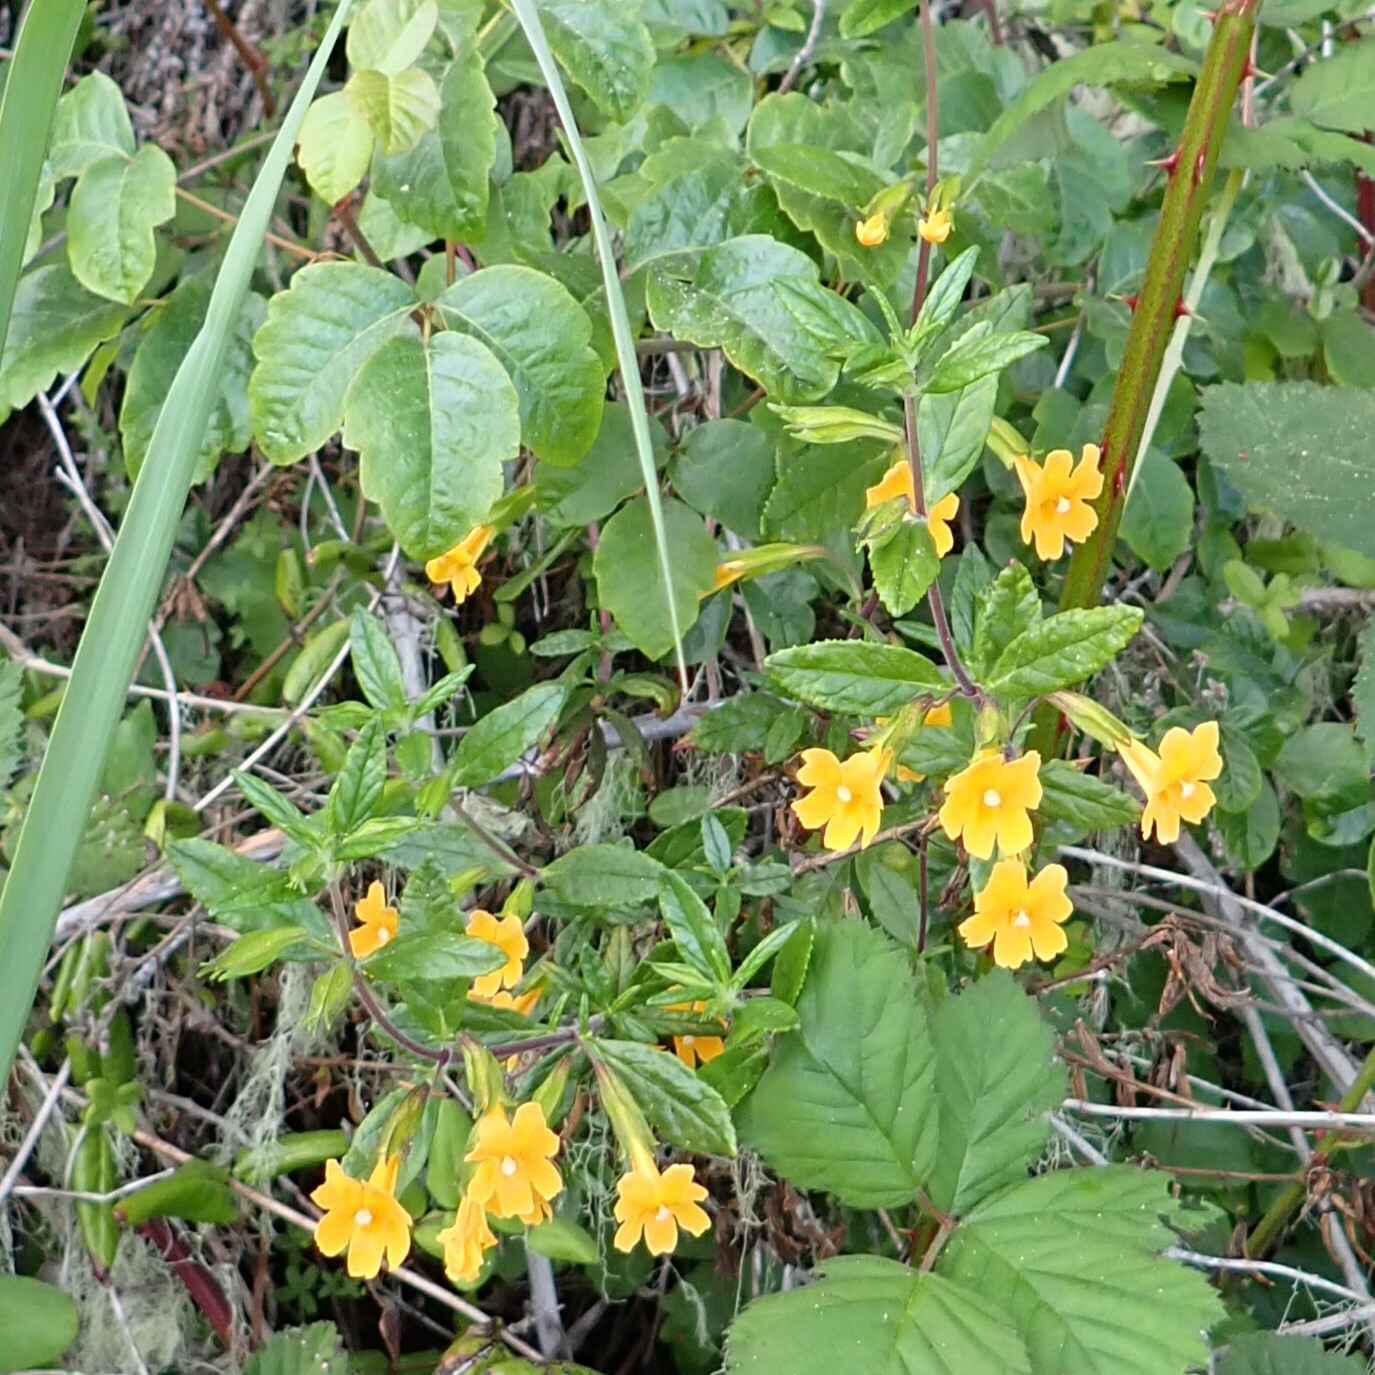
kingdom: Plantae
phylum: Tracheophyta
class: Magnoliopsida
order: Lamiales
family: Phrymaceae
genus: Diplacus
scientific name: Diplacus aurantiacus
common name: Bush monkey-flower
